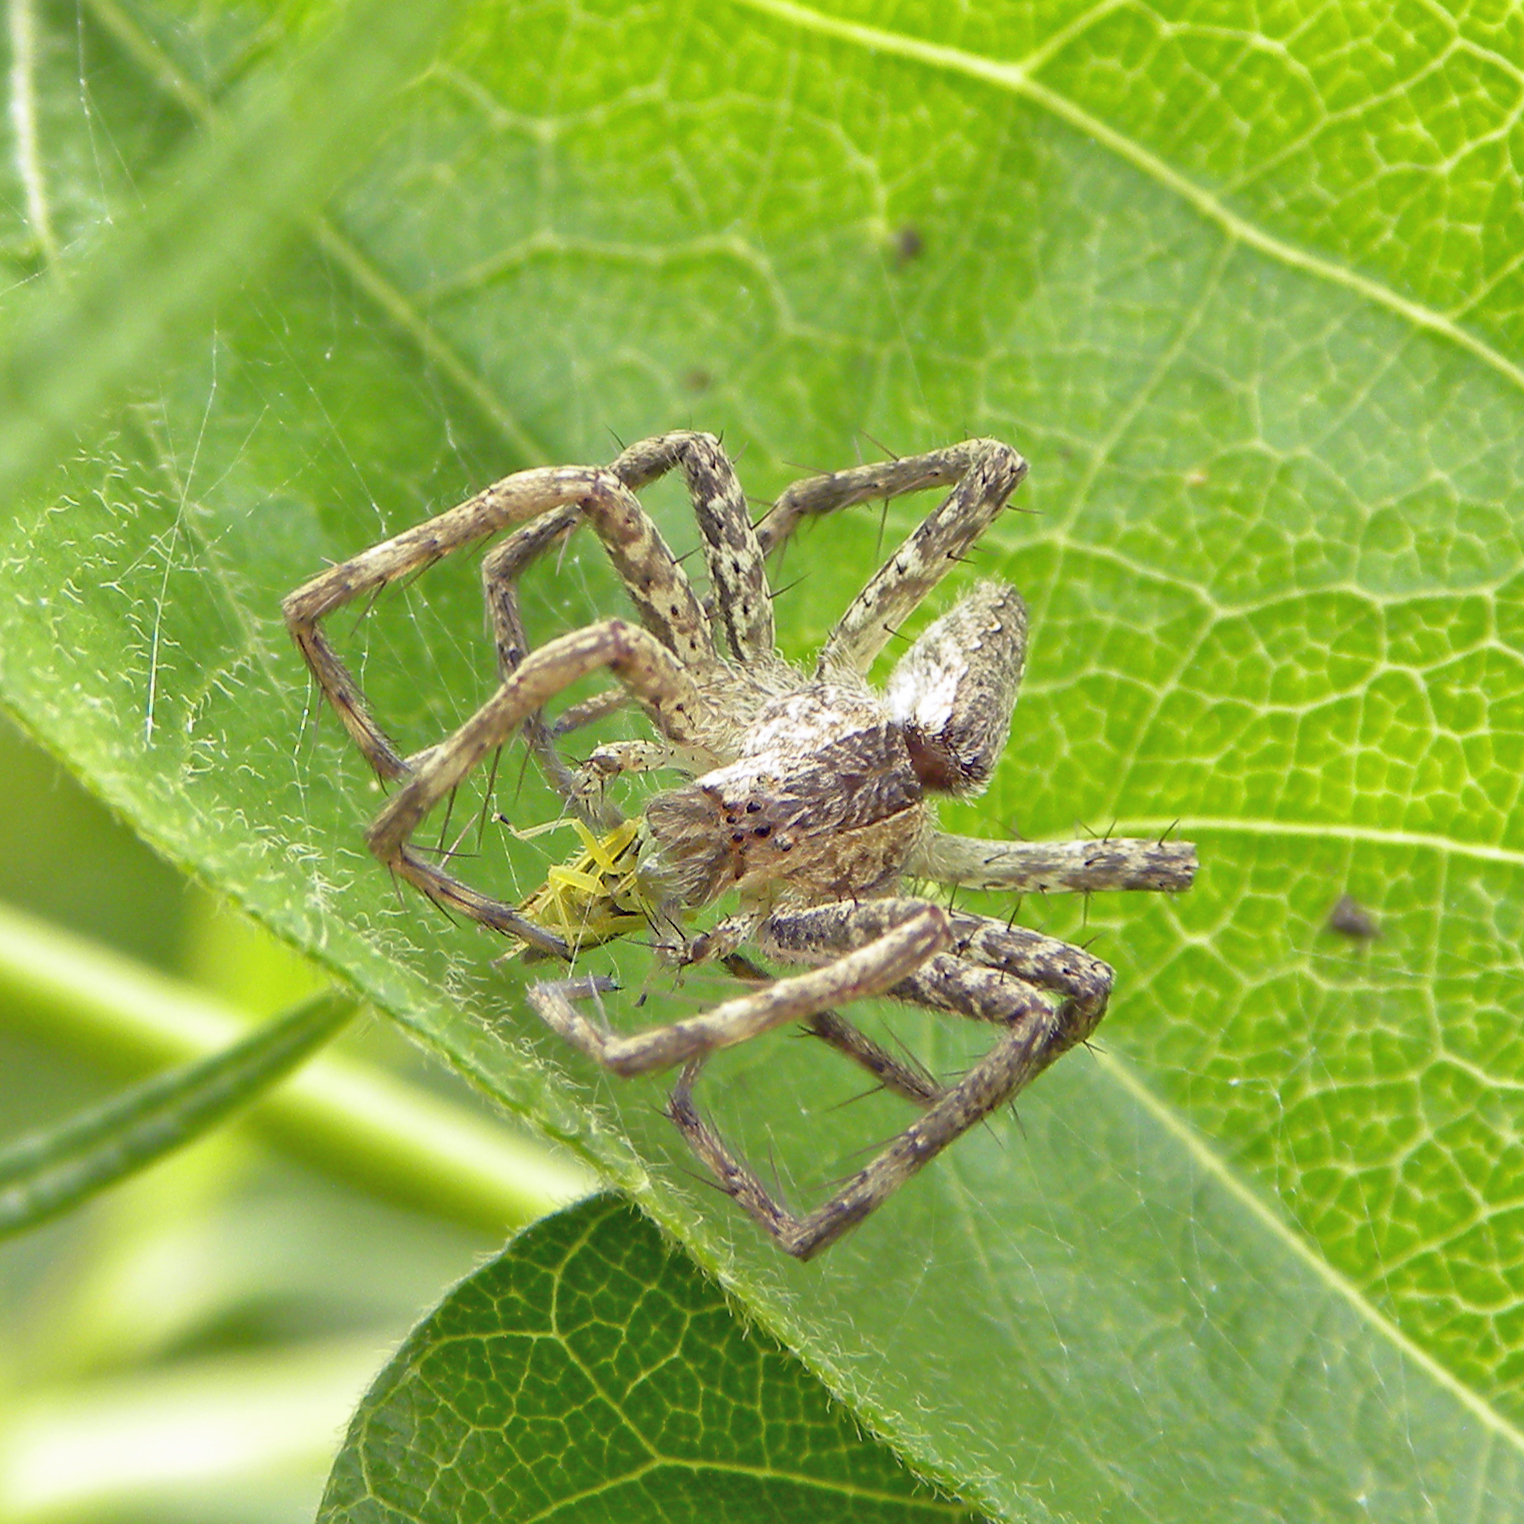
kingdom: Animalia
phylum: Arthropoda
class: Arachnida
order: Araneae
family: Pisauridae
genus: Pisaurina
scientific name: Pisaurina mira
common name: American nursery web spider
